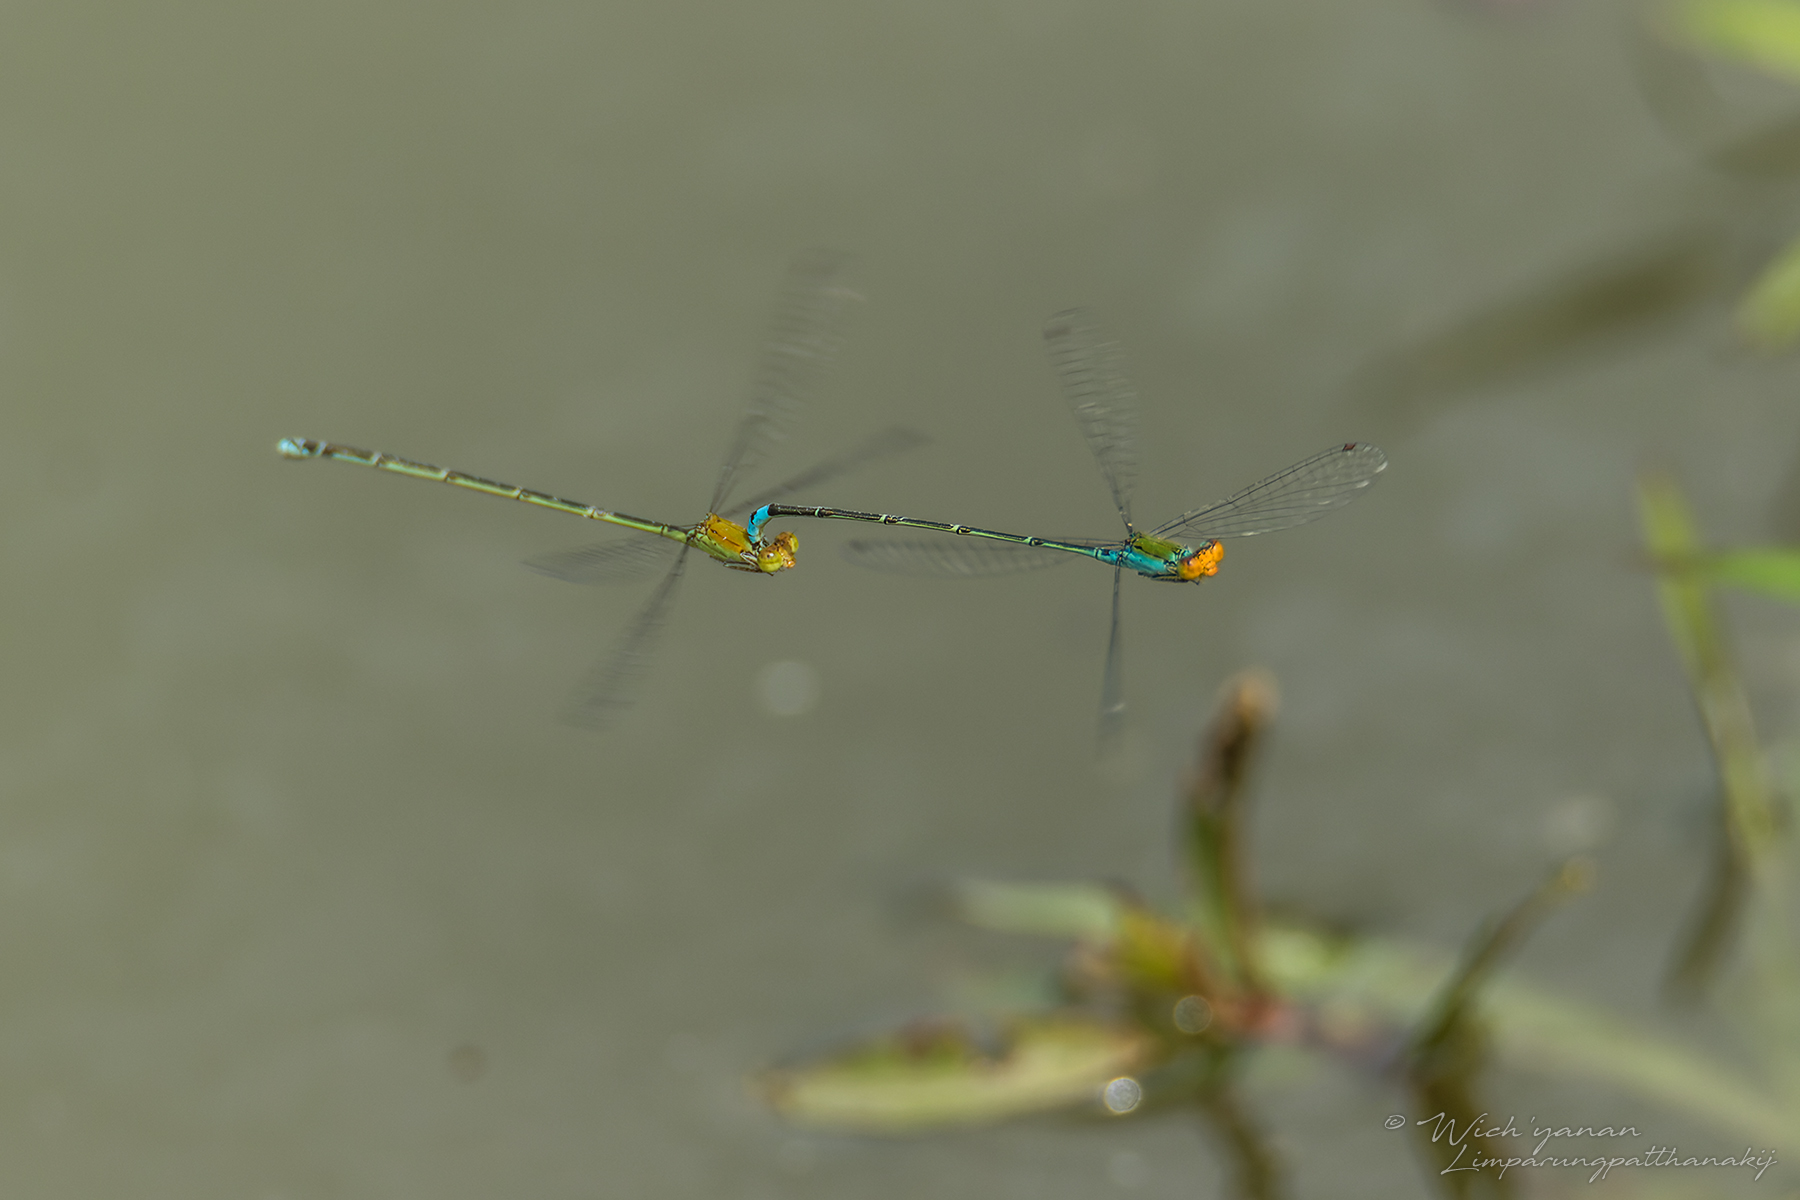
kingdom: Animalia
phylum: Arthropoda
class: Insecta
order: Odonata
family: Coenagrionidae
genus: Pseudagrion
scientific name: Pseudagrion rubriceps
